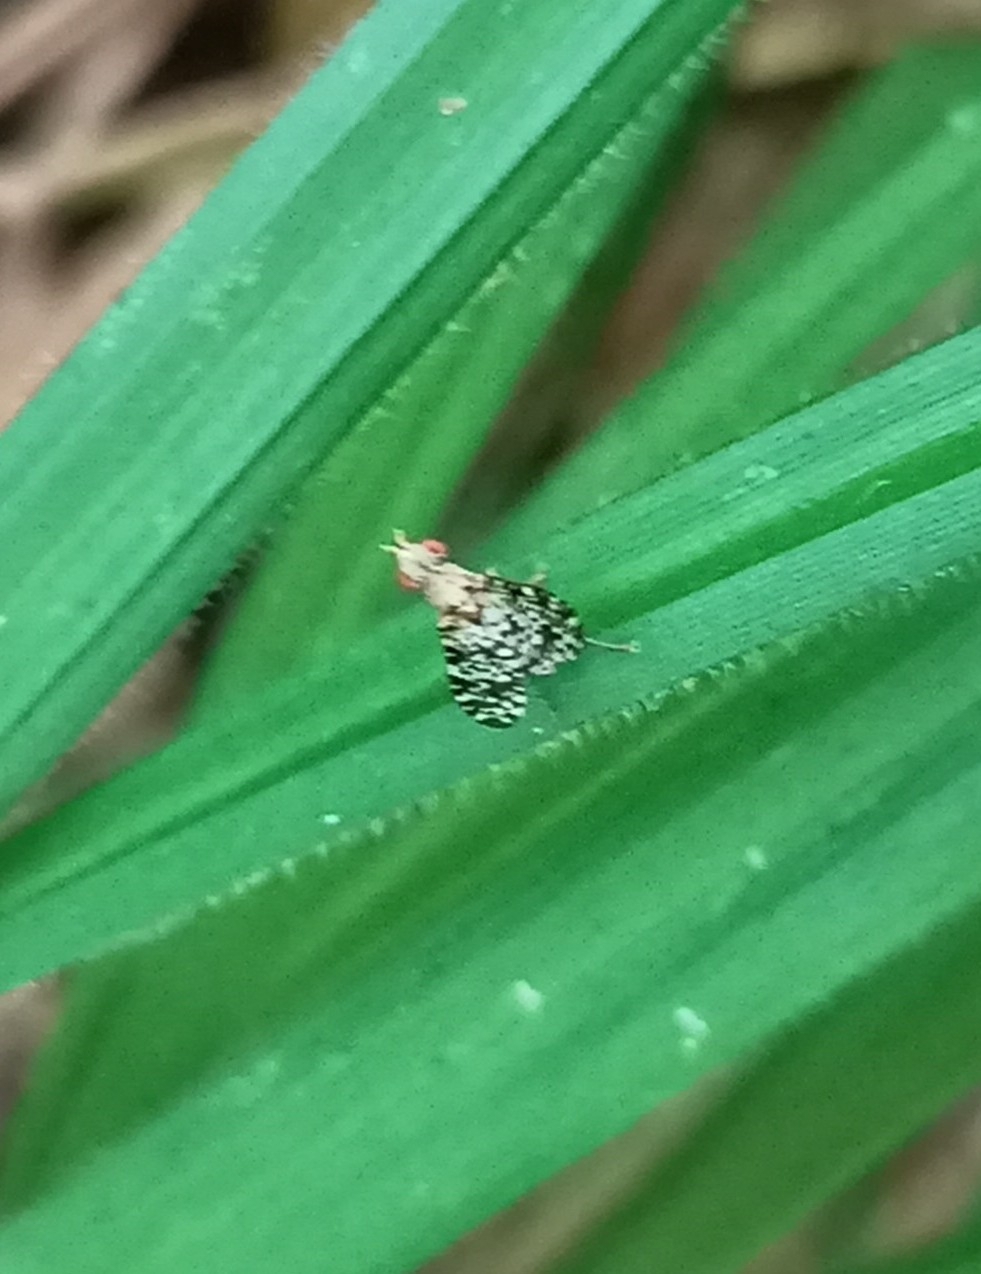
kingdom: Animalia
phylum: Arthropoda
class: Insecta
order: Diptera
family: Sciomyzidae
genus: Trypetoptera
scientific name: Trypetoptera punctulata
